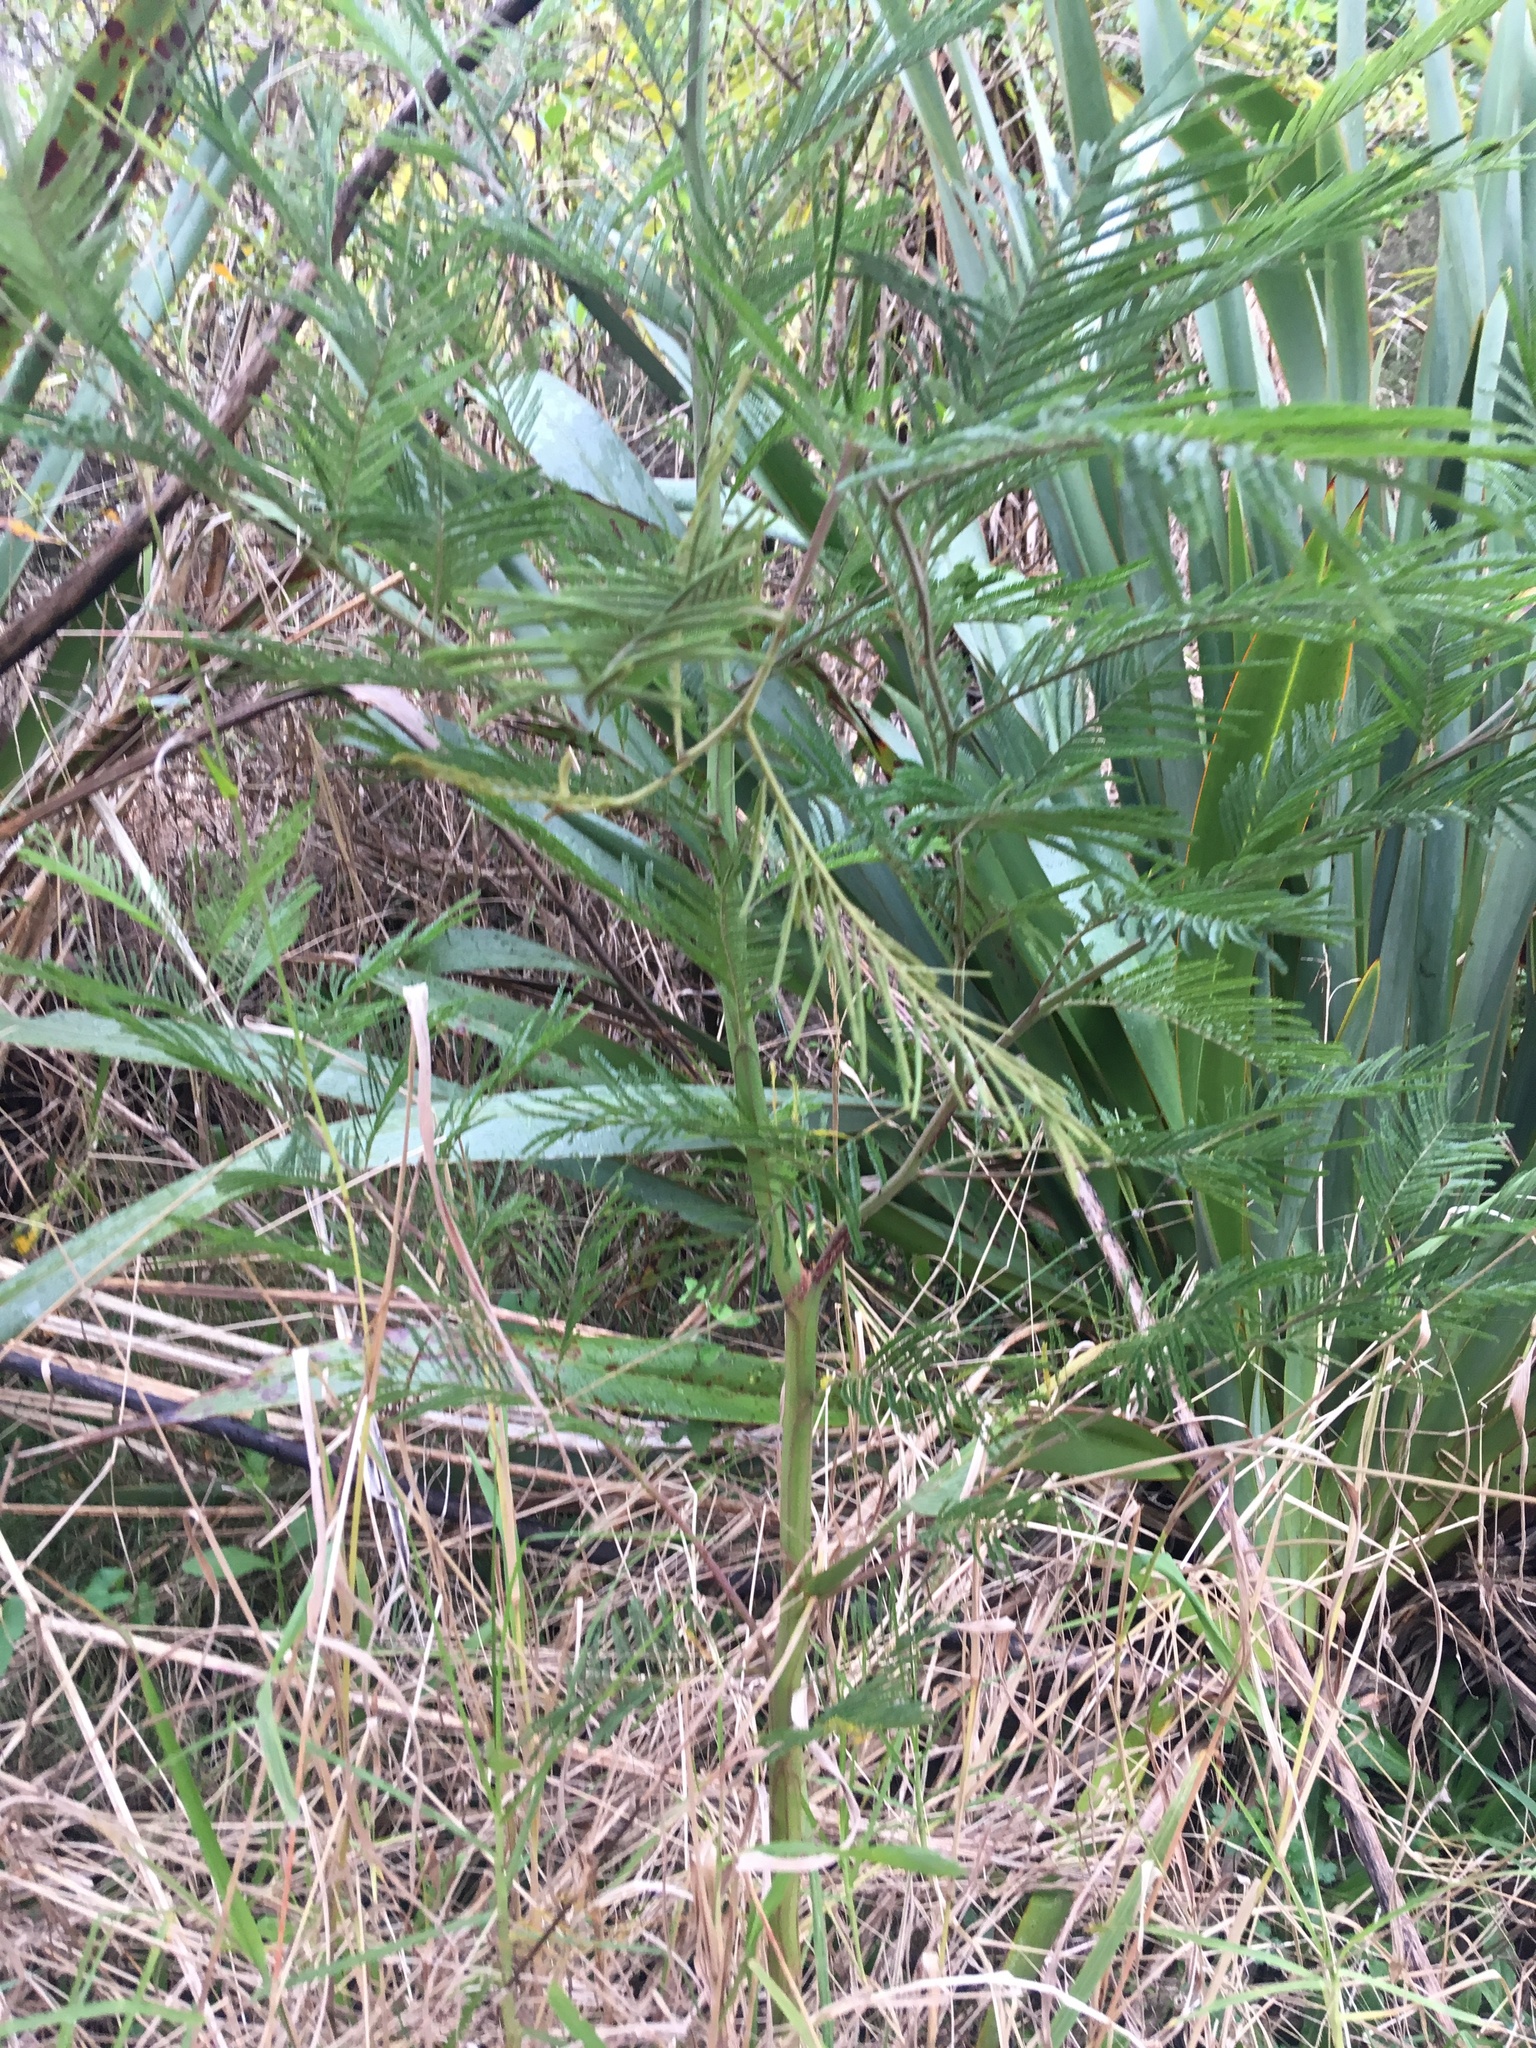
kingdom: Plantae
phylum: Tracheophyta
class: Magnoliopsida
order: Fabales
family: Fabaceae
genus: Acacia
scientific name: Acacia mearnsii
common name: Black wattle
